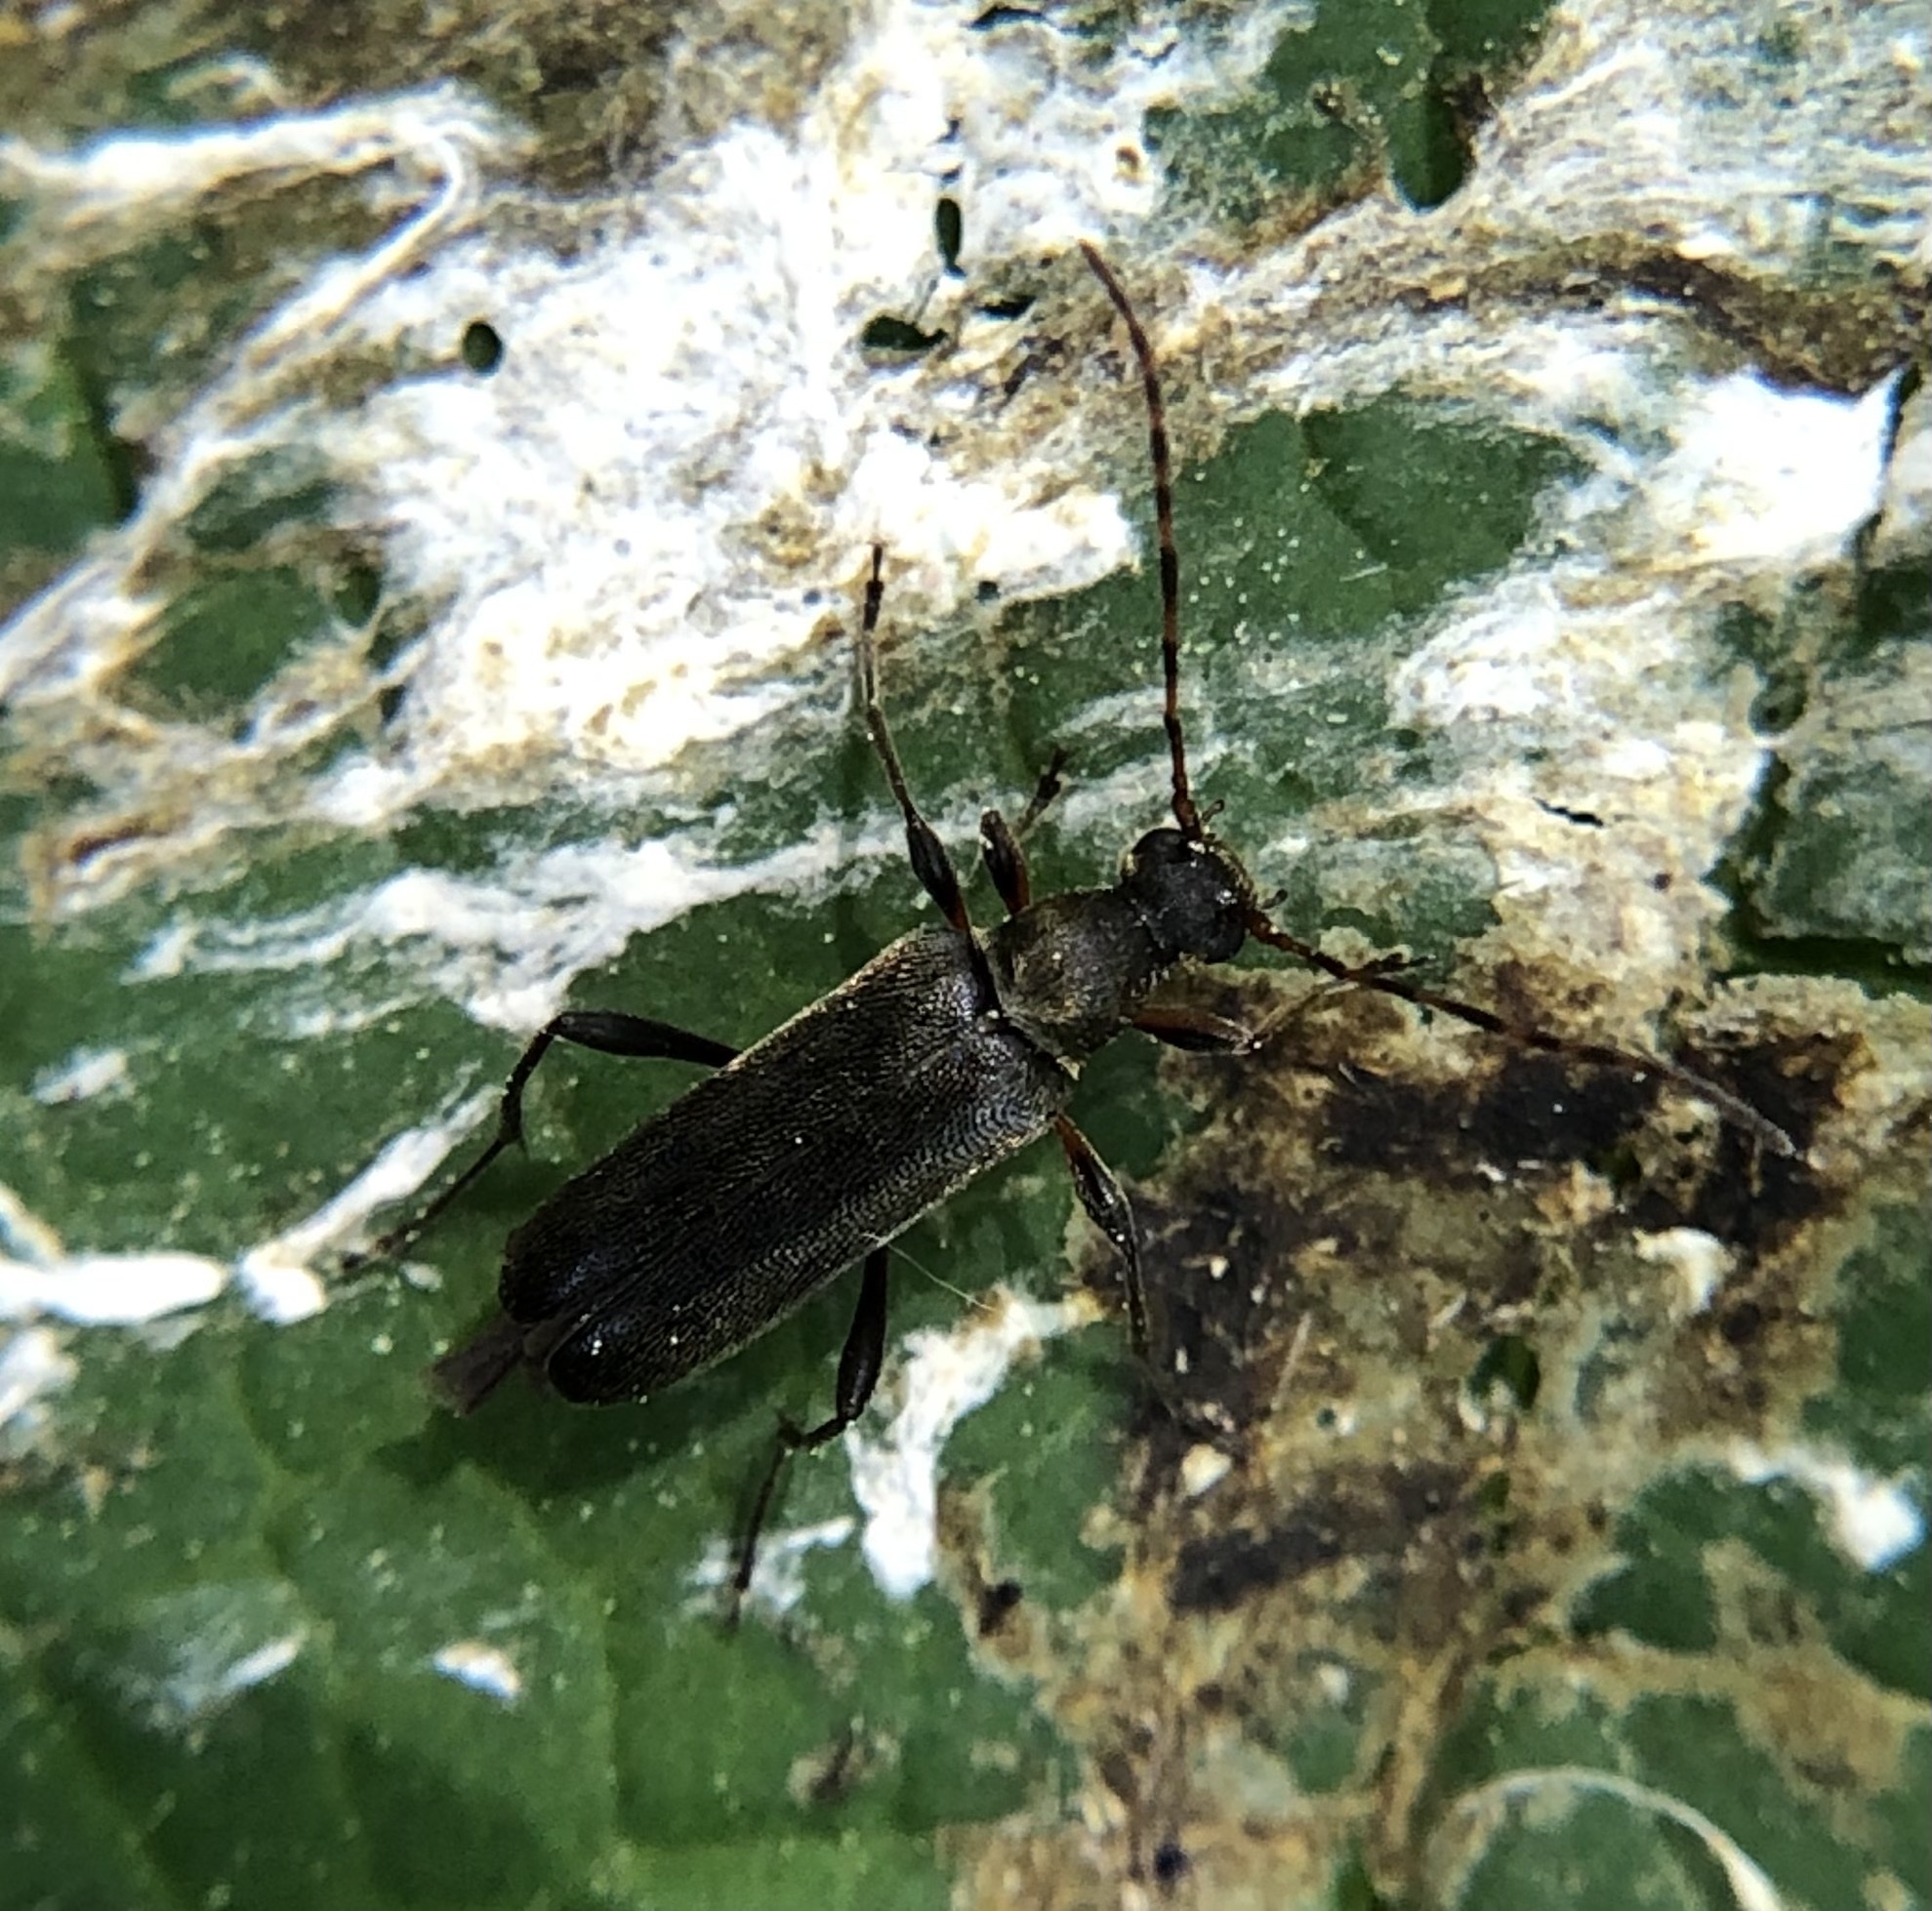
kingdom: Animalia
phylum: Arthropoda
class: Insecta
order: Coleoptera
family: Cerambycidae
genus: Grammoptera
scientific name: Grammoptera ruficornis
